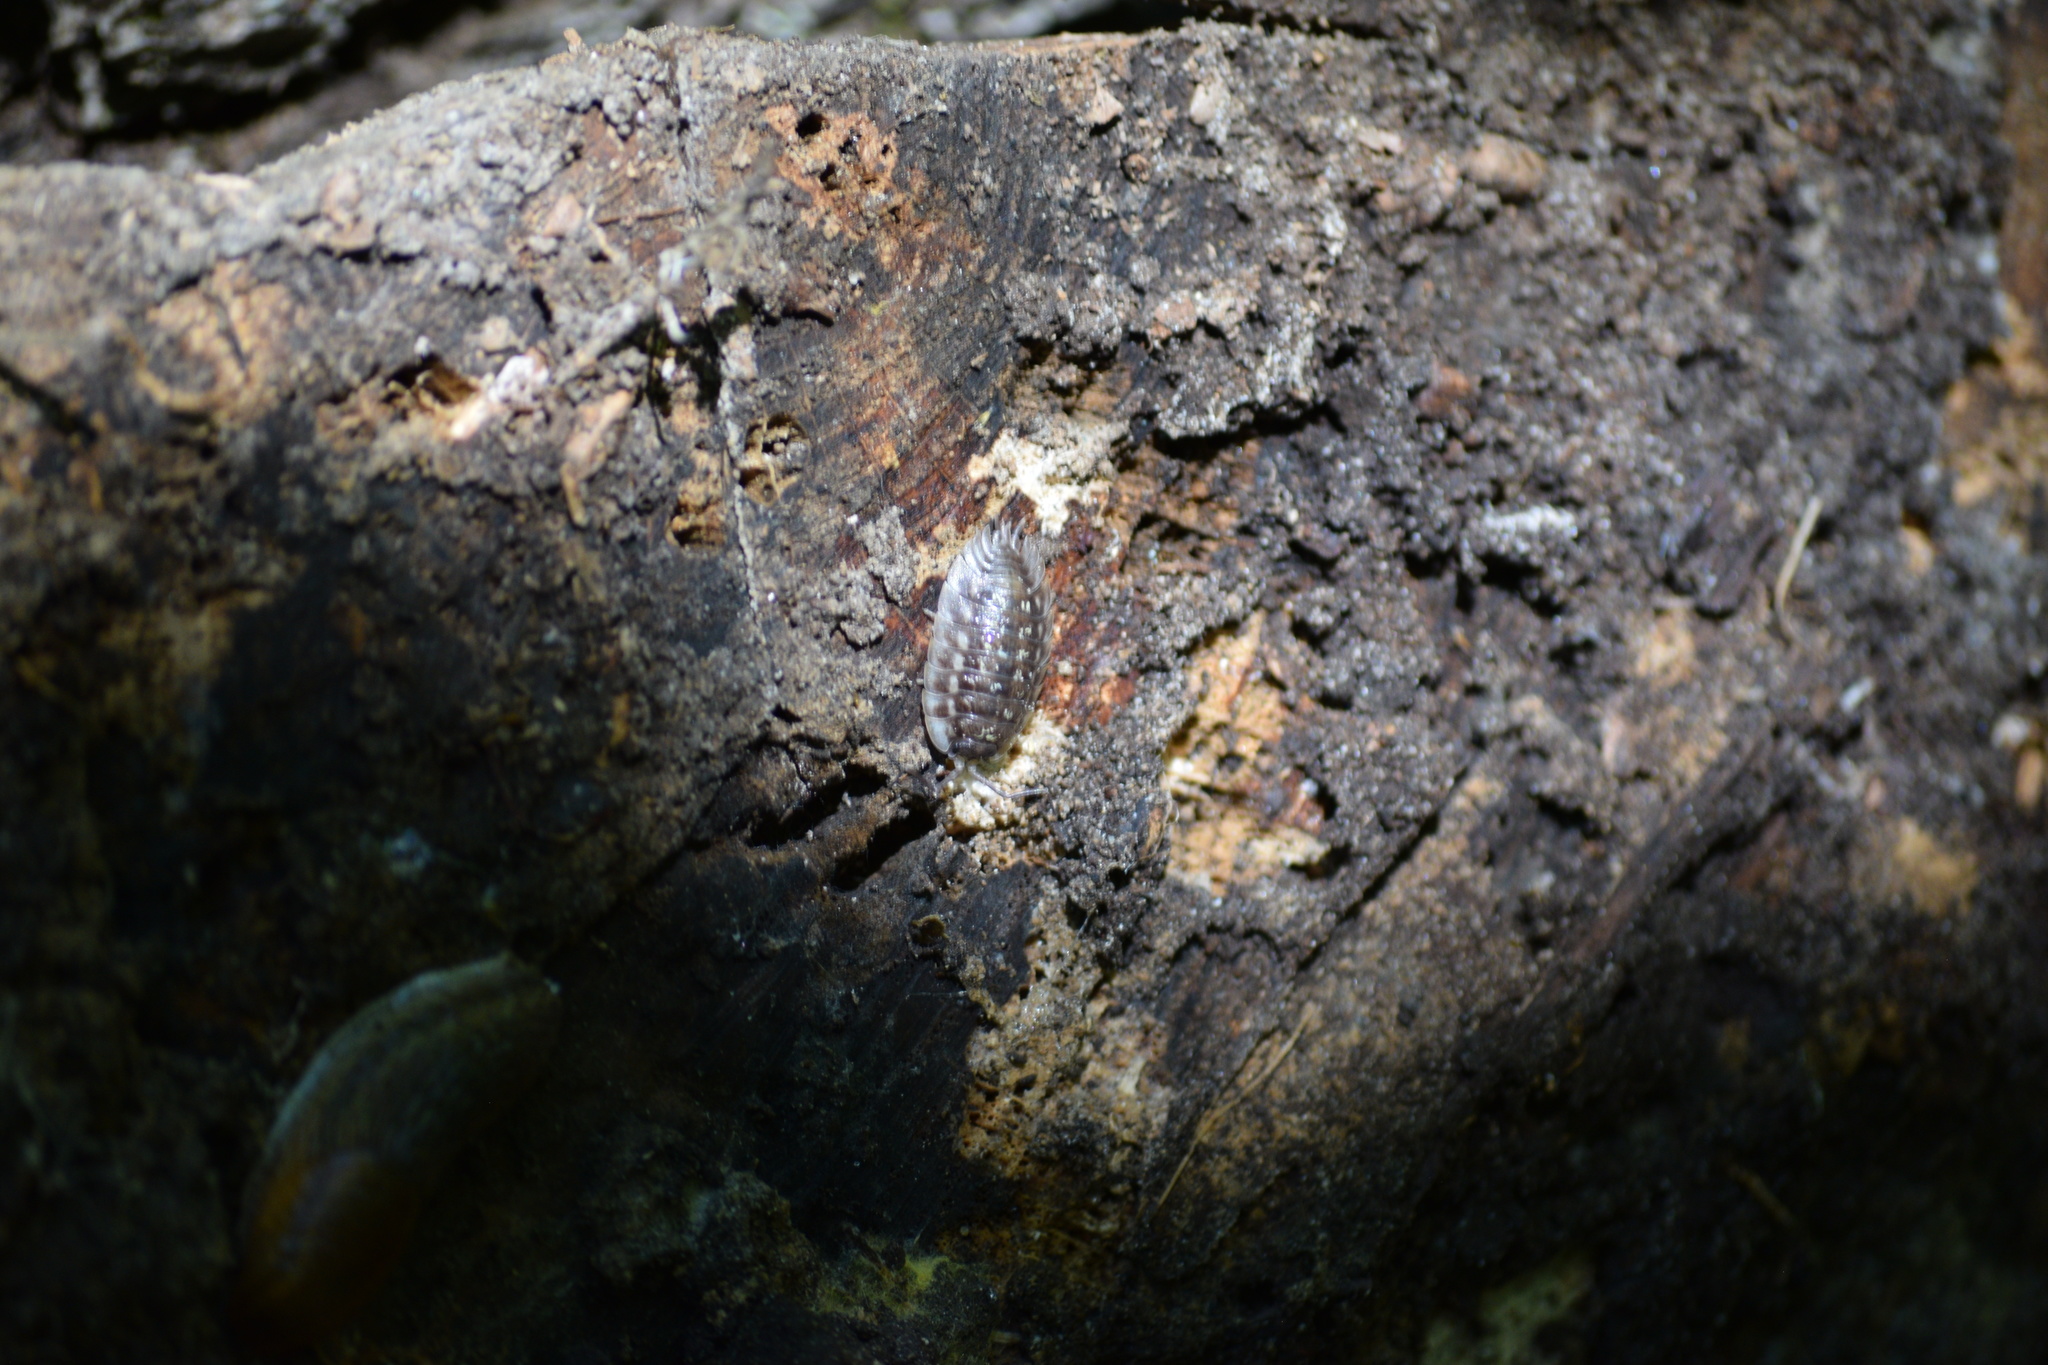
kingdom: Animalia
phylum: Arthropoda
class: Malacostraca
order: Isopoda
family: Oniscidae
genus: Oniscus
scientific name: Oniscus asellus
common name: Common shiny woodlouse
